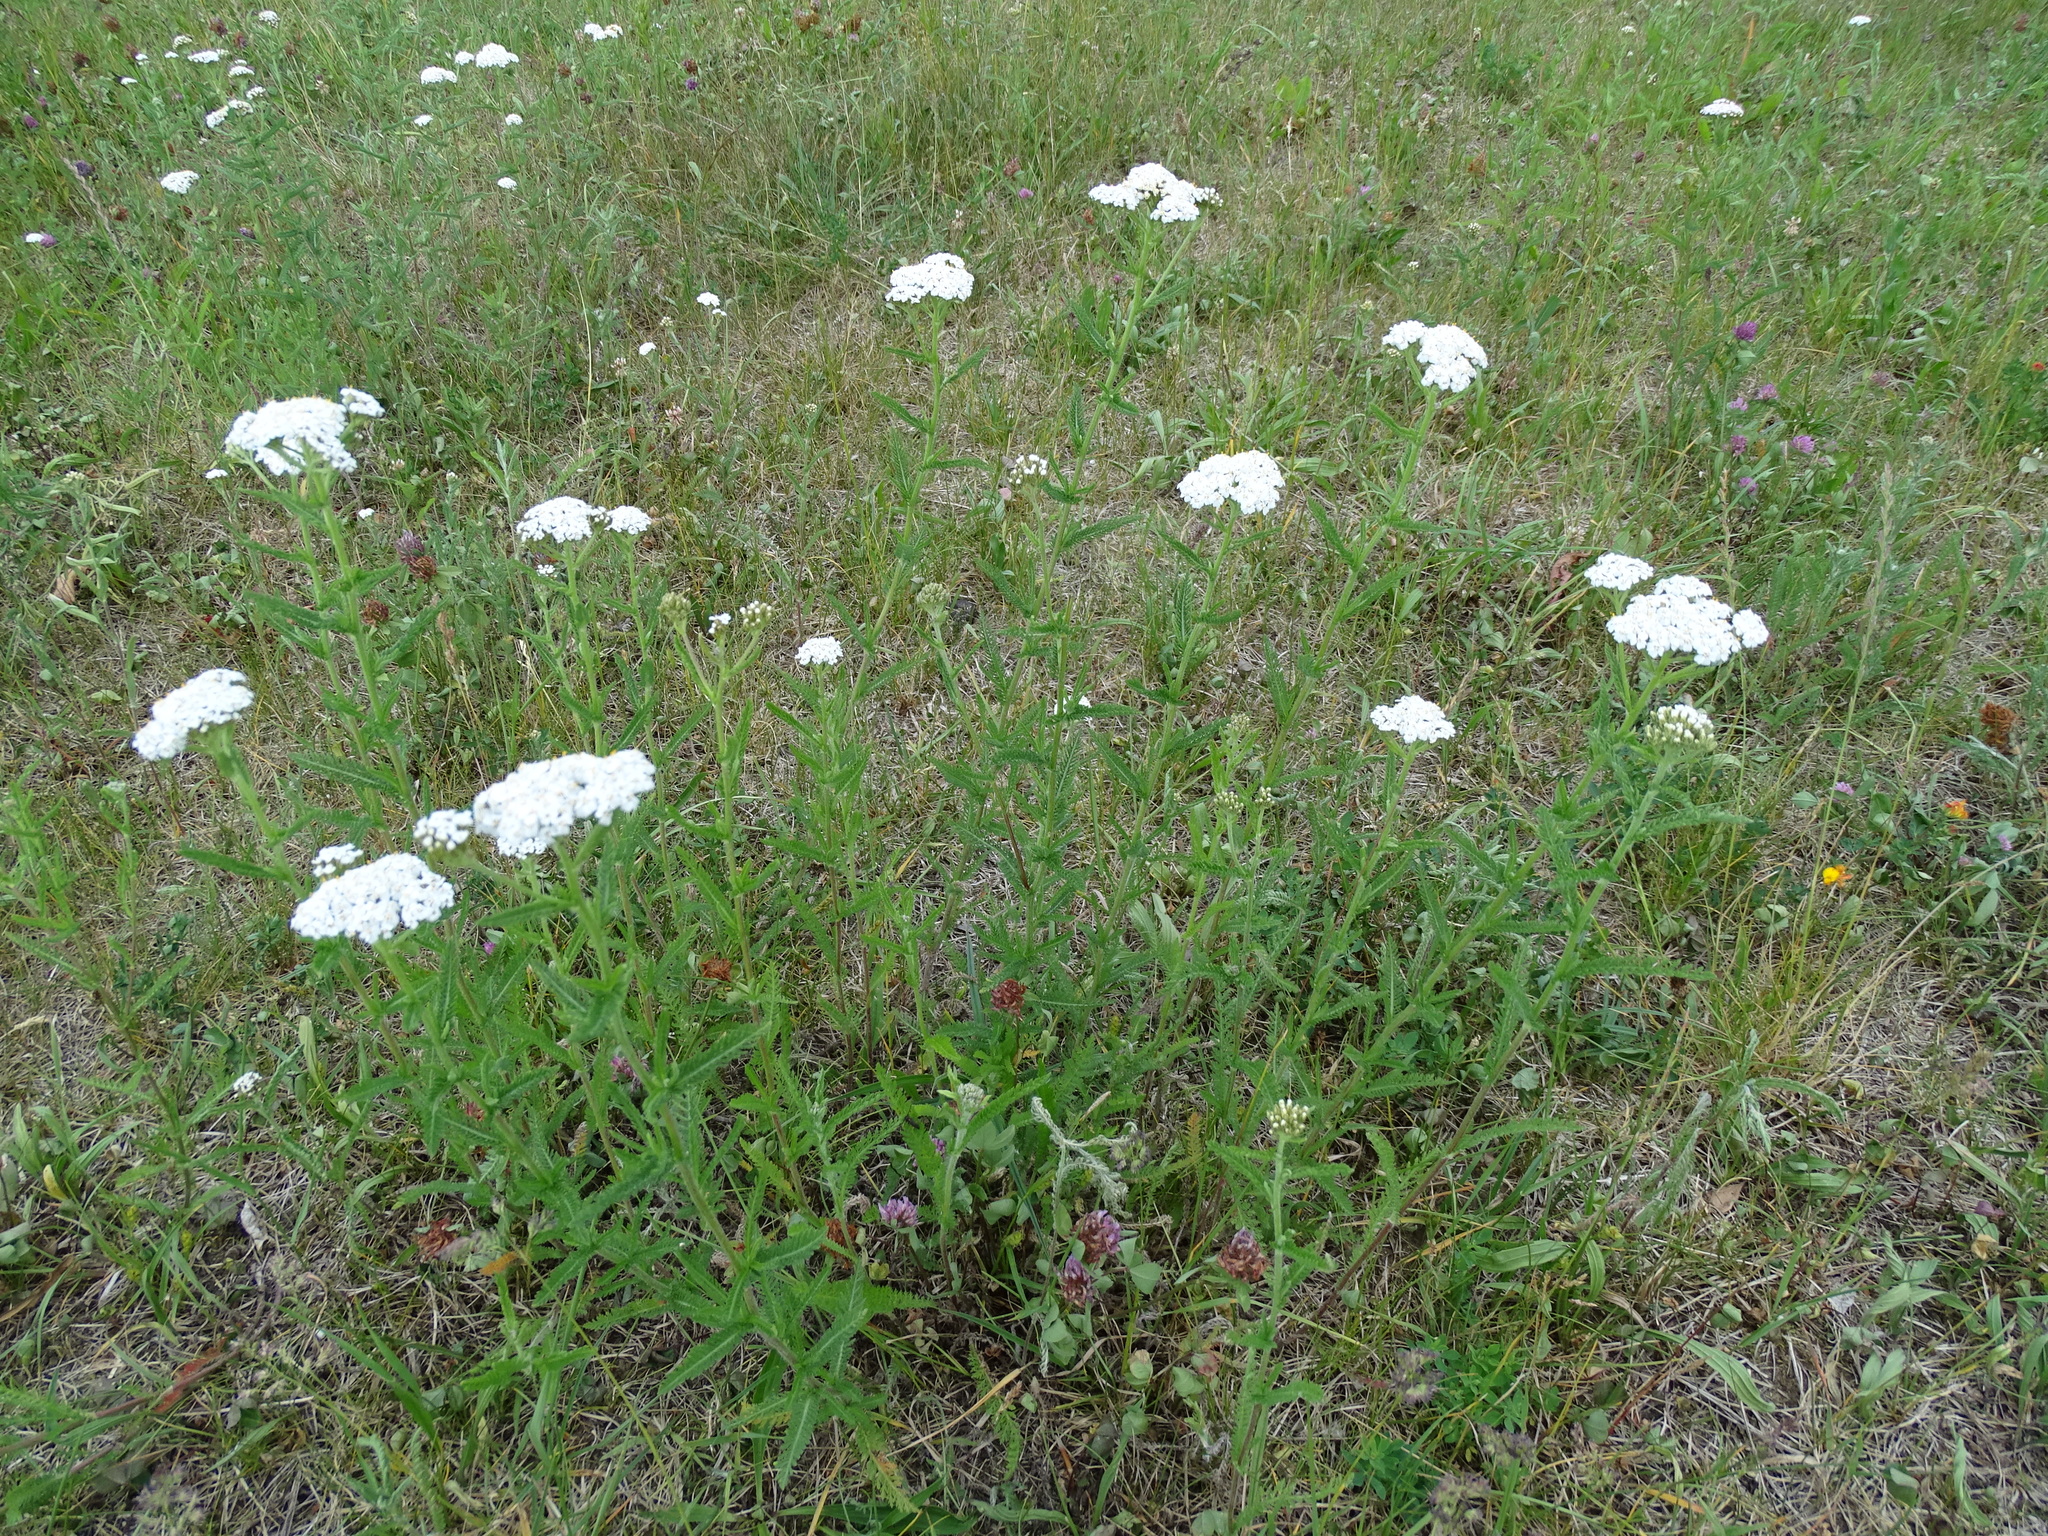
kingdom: Plantae
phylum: Tracheophyta
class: Magnoliopsida
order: Asterales
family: Asteraceae
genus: Achillea
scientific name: Achillea millefolium
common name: Yarrow
